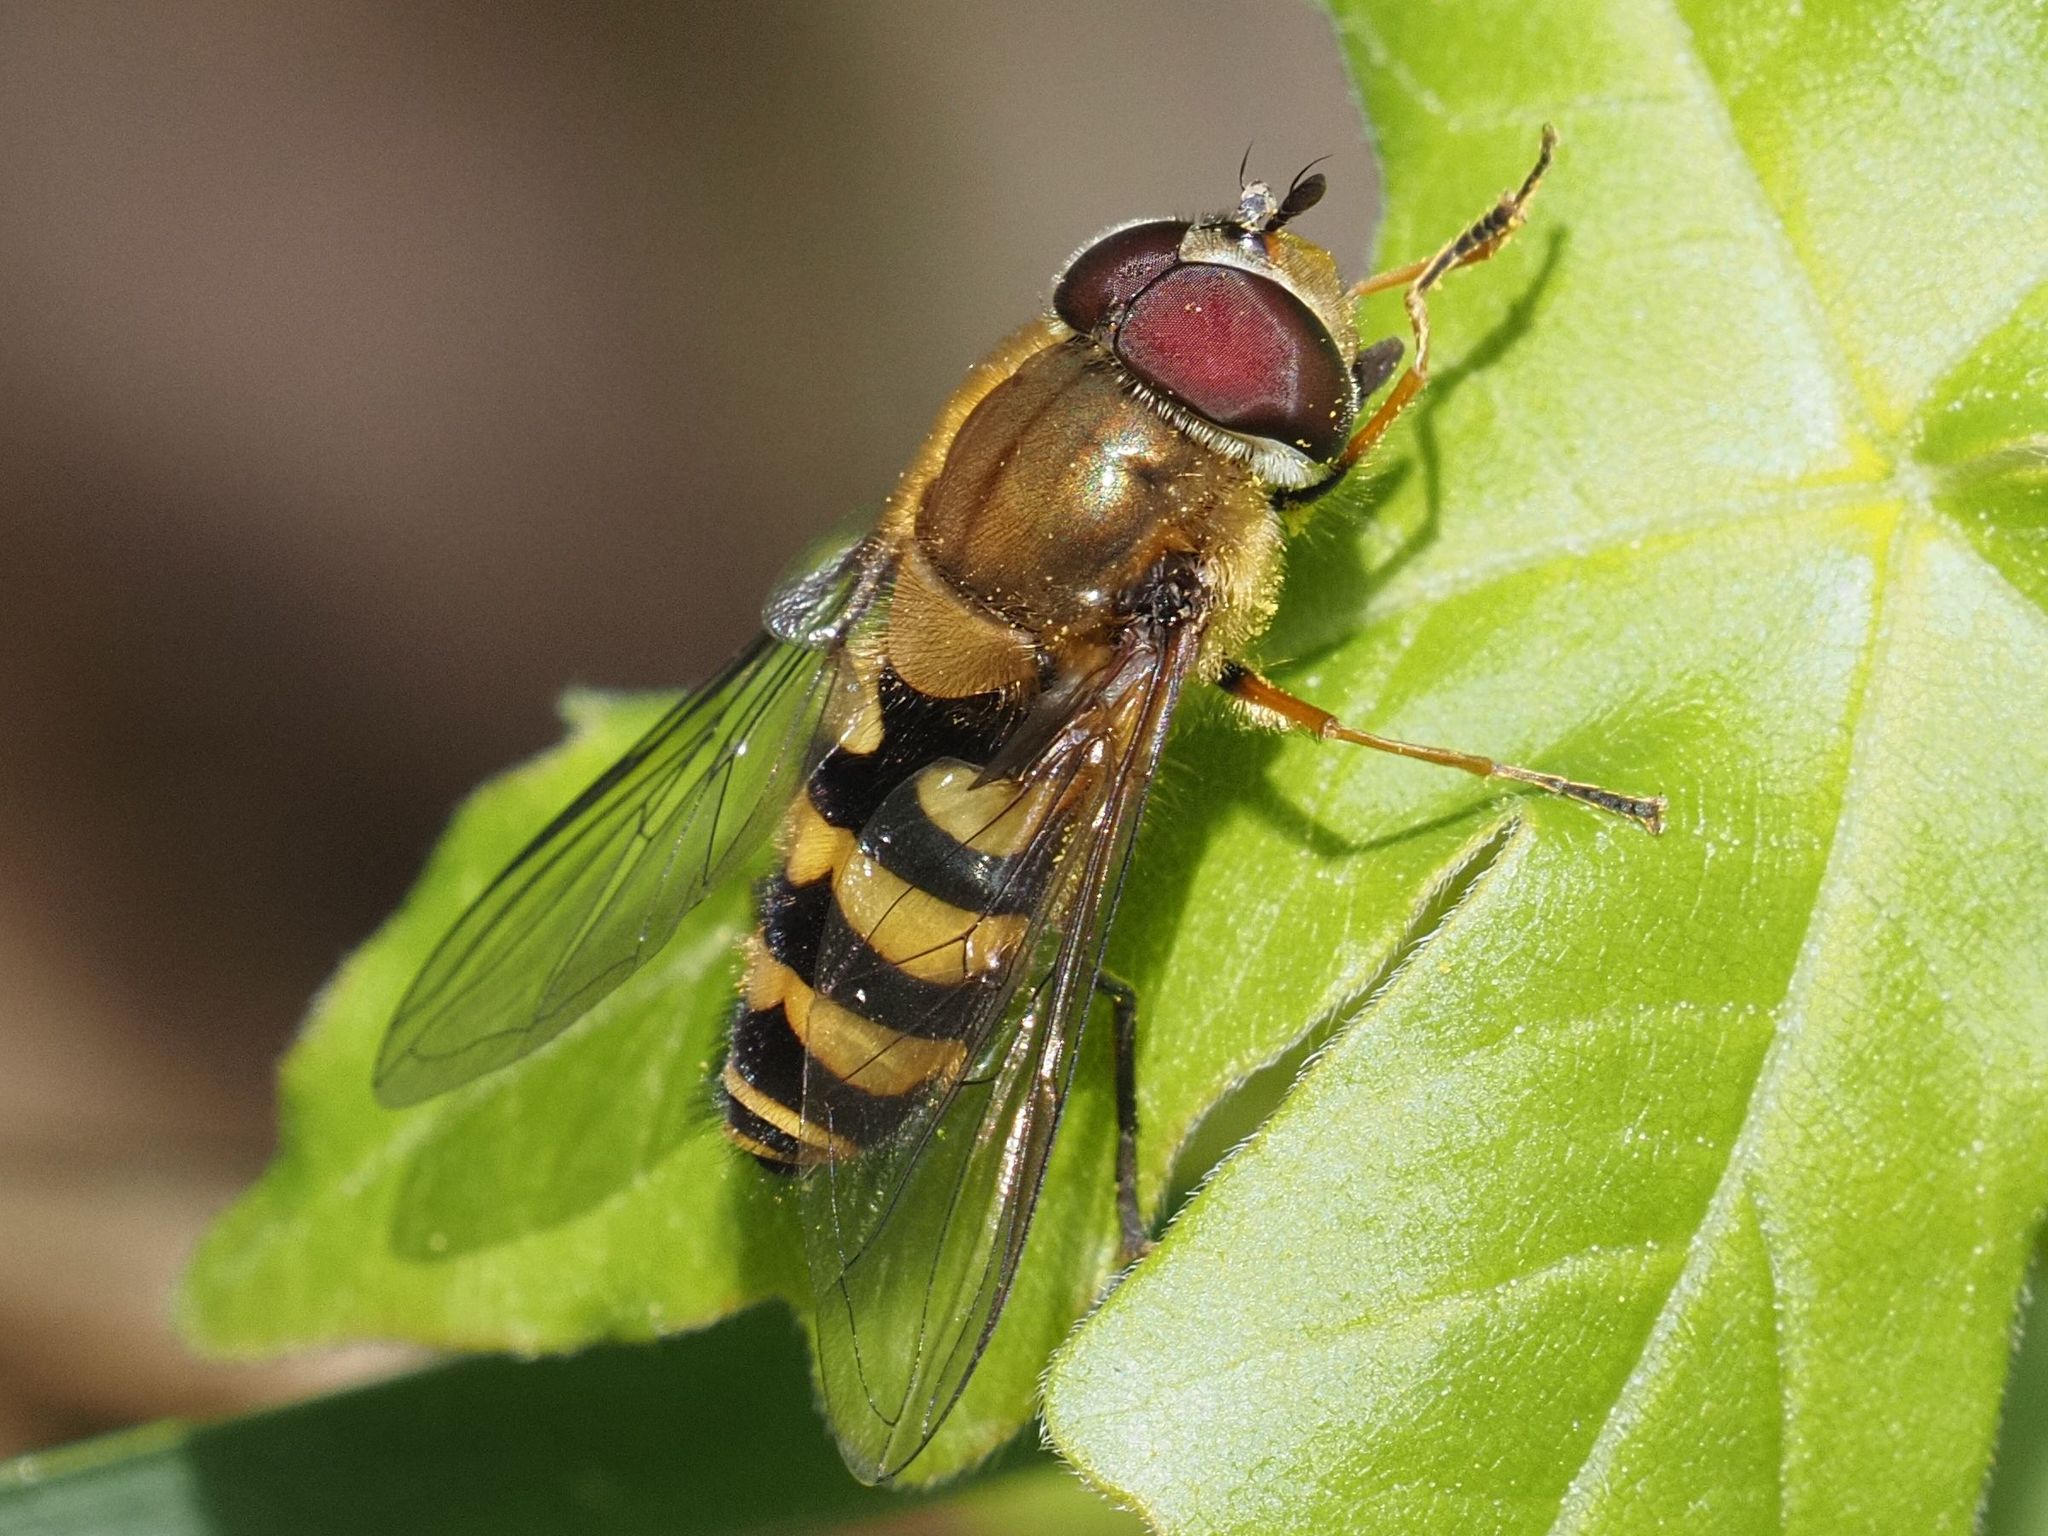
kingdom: Animalia
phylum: Arthropoda
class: Insecta
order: Diptera
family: Syrphidae
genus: Syrphus
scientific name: Syrphus torvus
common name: Hairy-eyed flower fly
